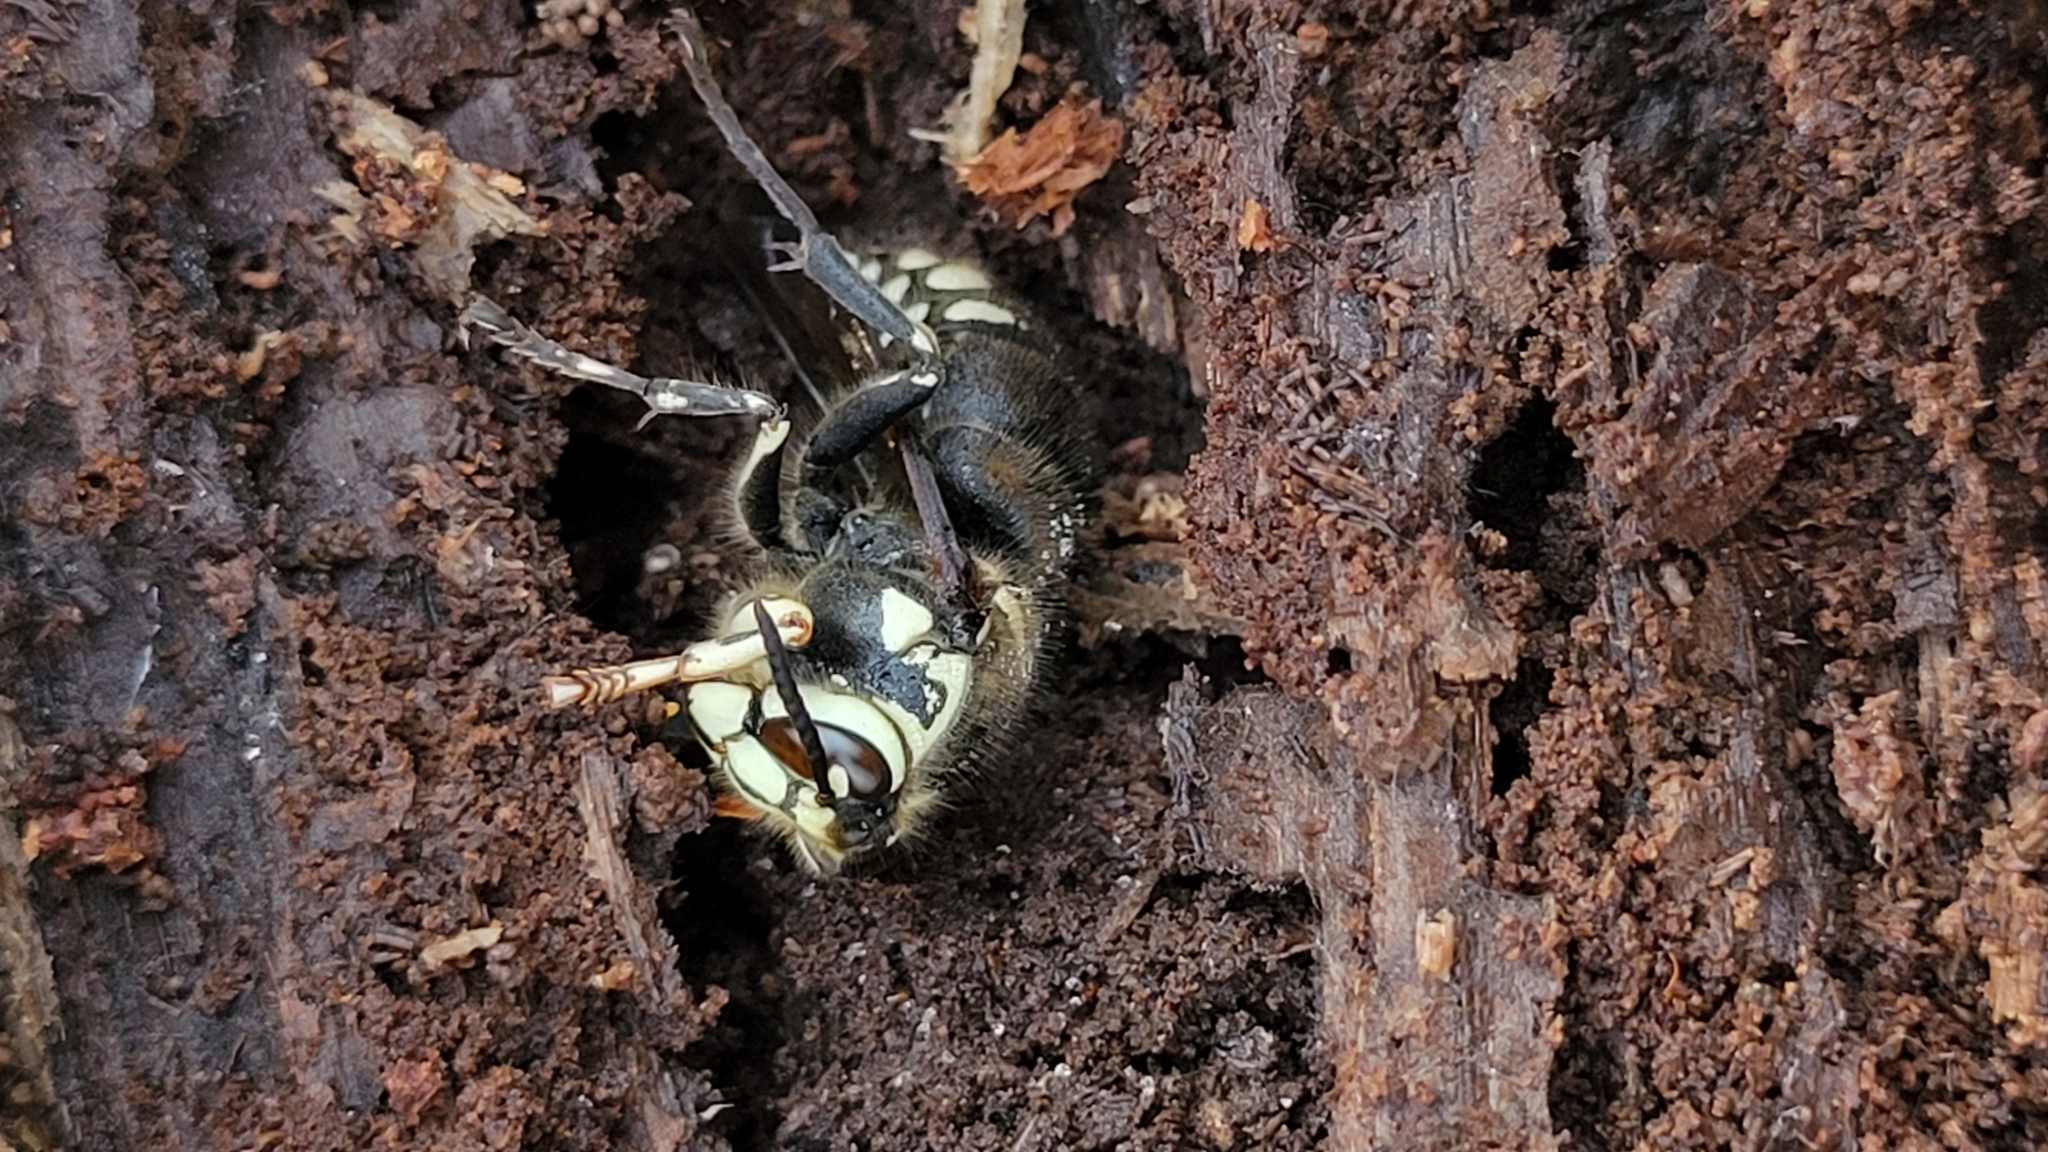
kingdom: Animalia
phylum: Arthropoda
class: Insecta
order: Hymenoptera
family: Vespidae
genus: Dolichovespula
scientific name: Dolichovespula maculata
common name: Bald-faced hornet
